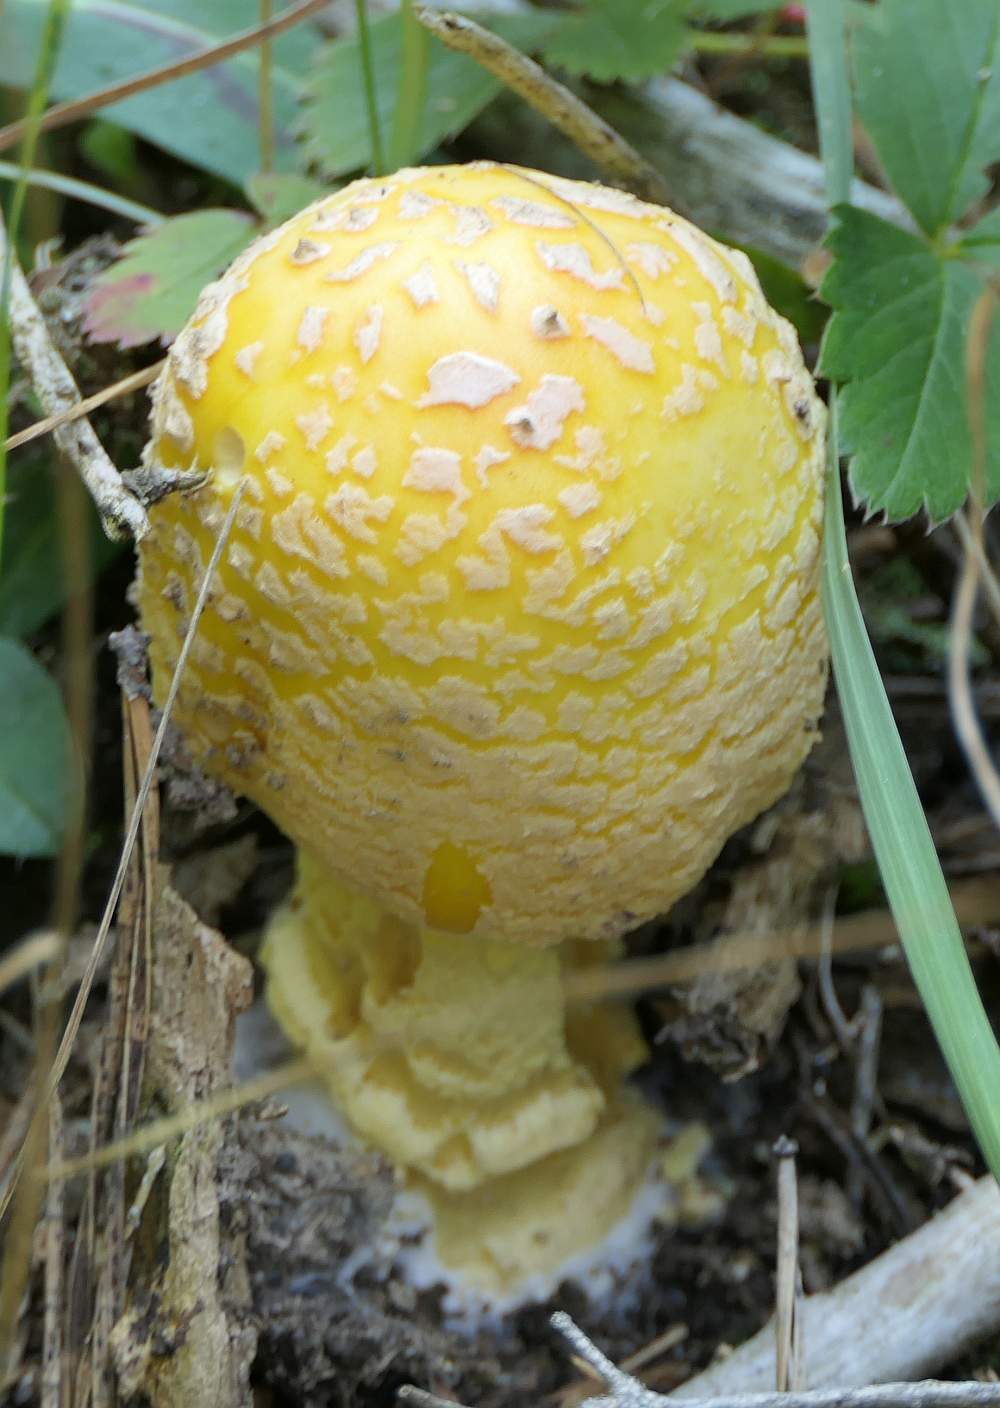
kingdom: Fungi
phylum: Basidiomycota
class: Agaricomycetes
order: Agaricales
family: Amanitaceae
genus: Amanita
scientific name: Amanita muscaria
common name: Fly agaric
